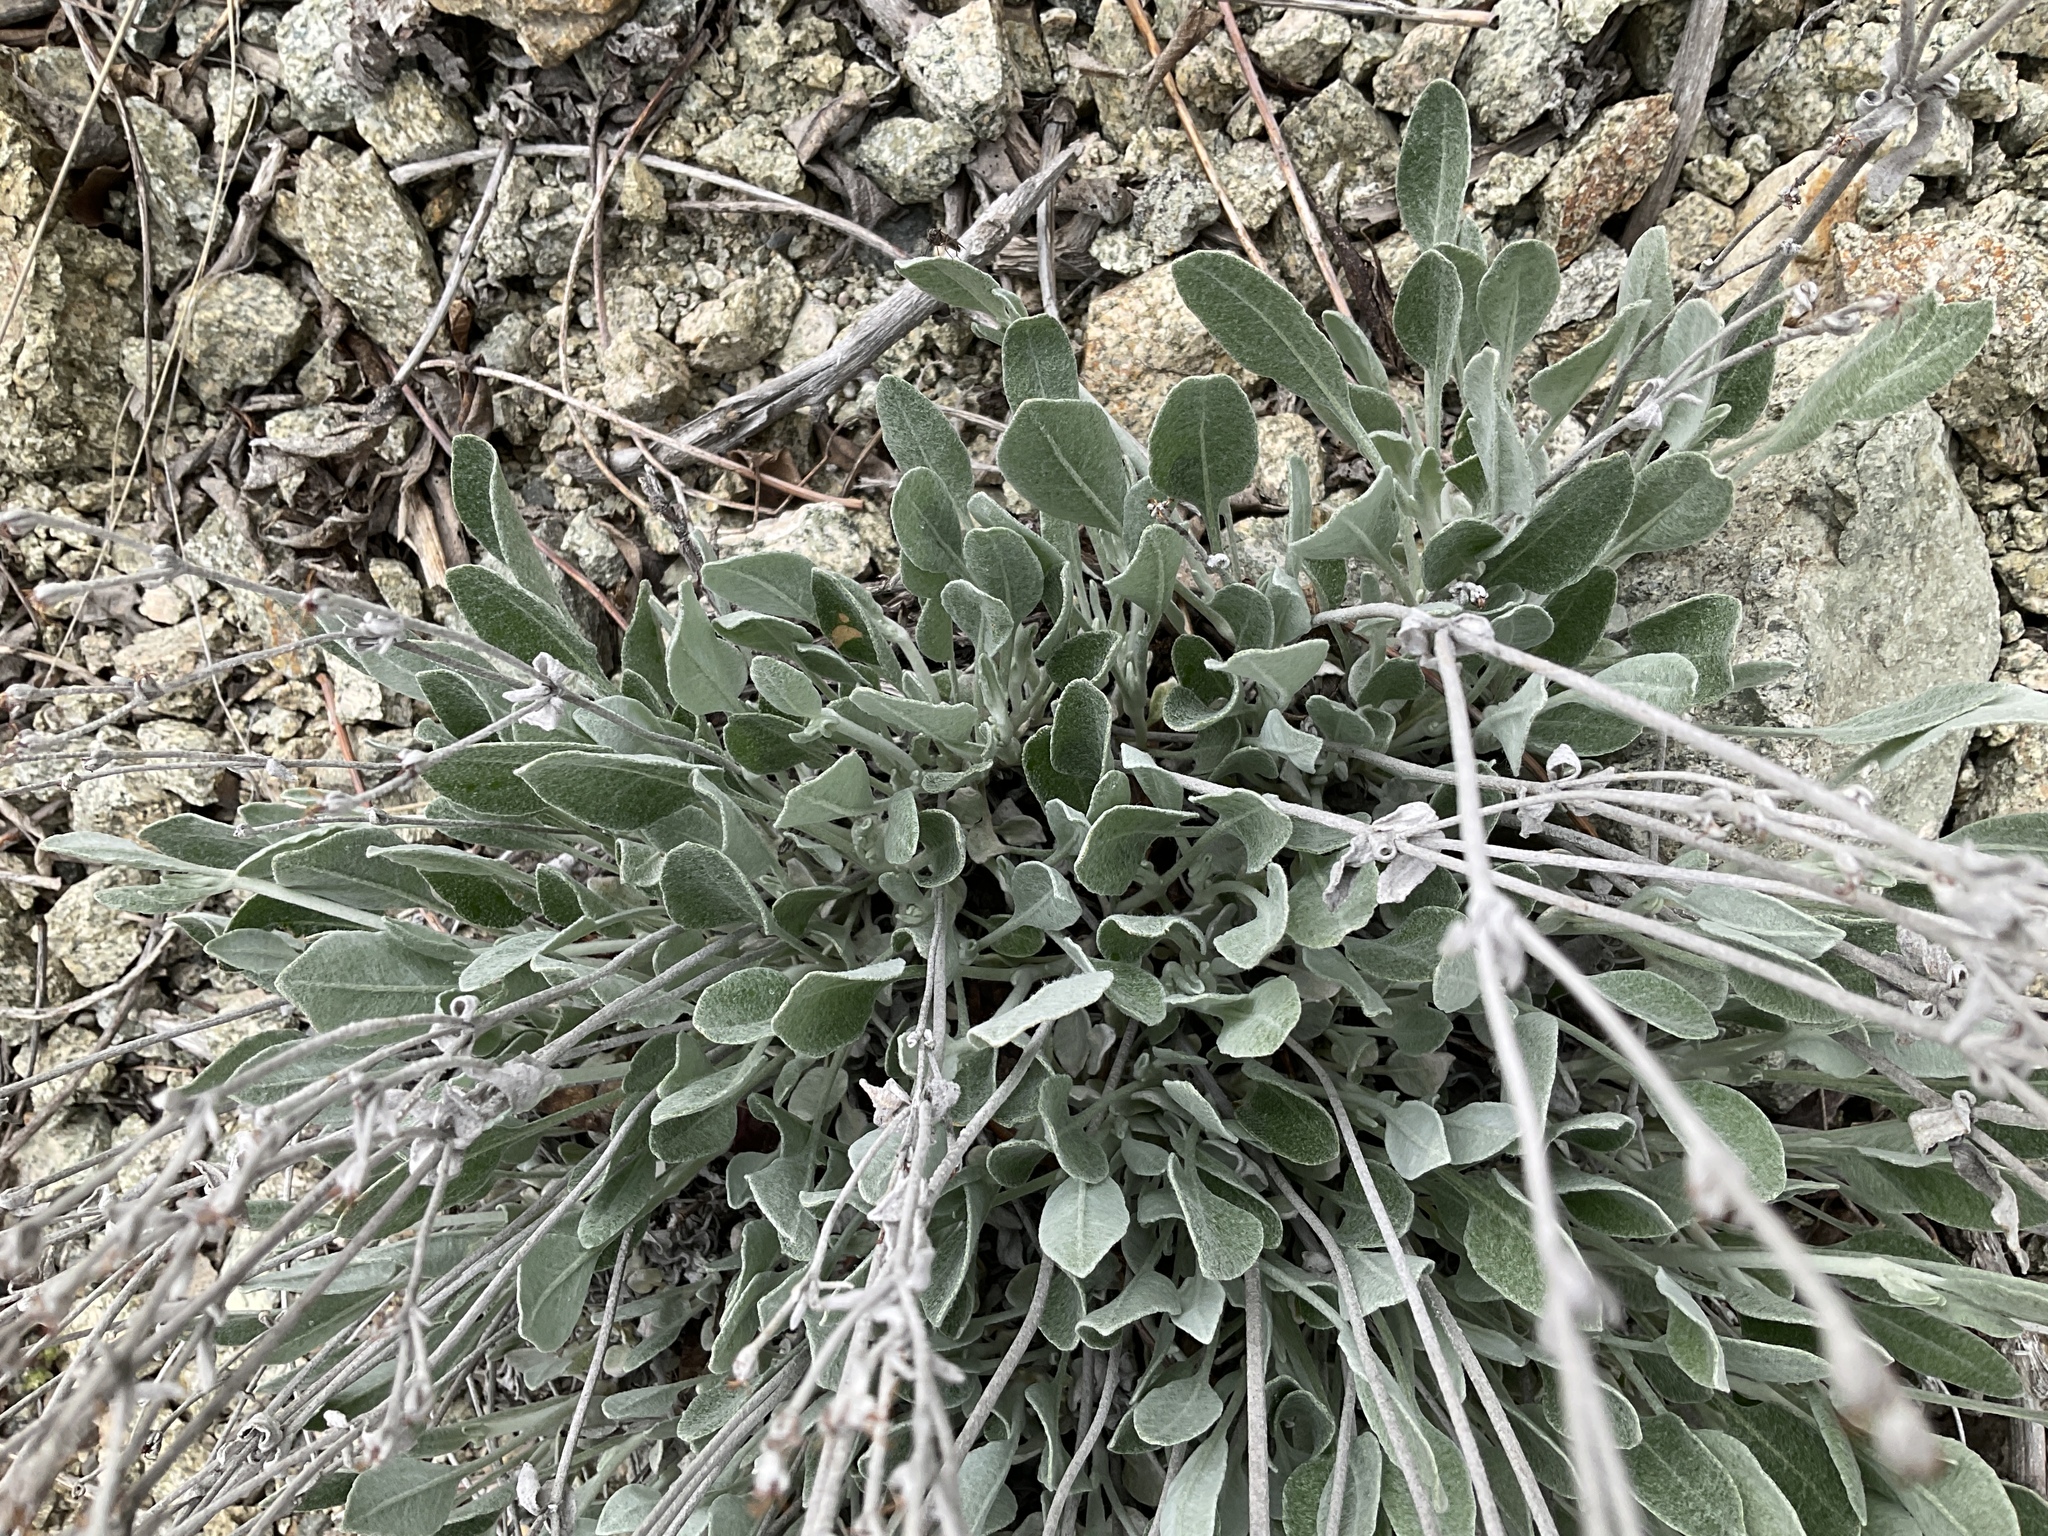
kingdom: Plantae
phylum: Tracheophyta
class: Magnoliopsida
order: Caryophyllales
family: Polygonaceae
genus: Eriogonum
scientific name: Eriogonum niveum
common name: Snow wild buckwheat
